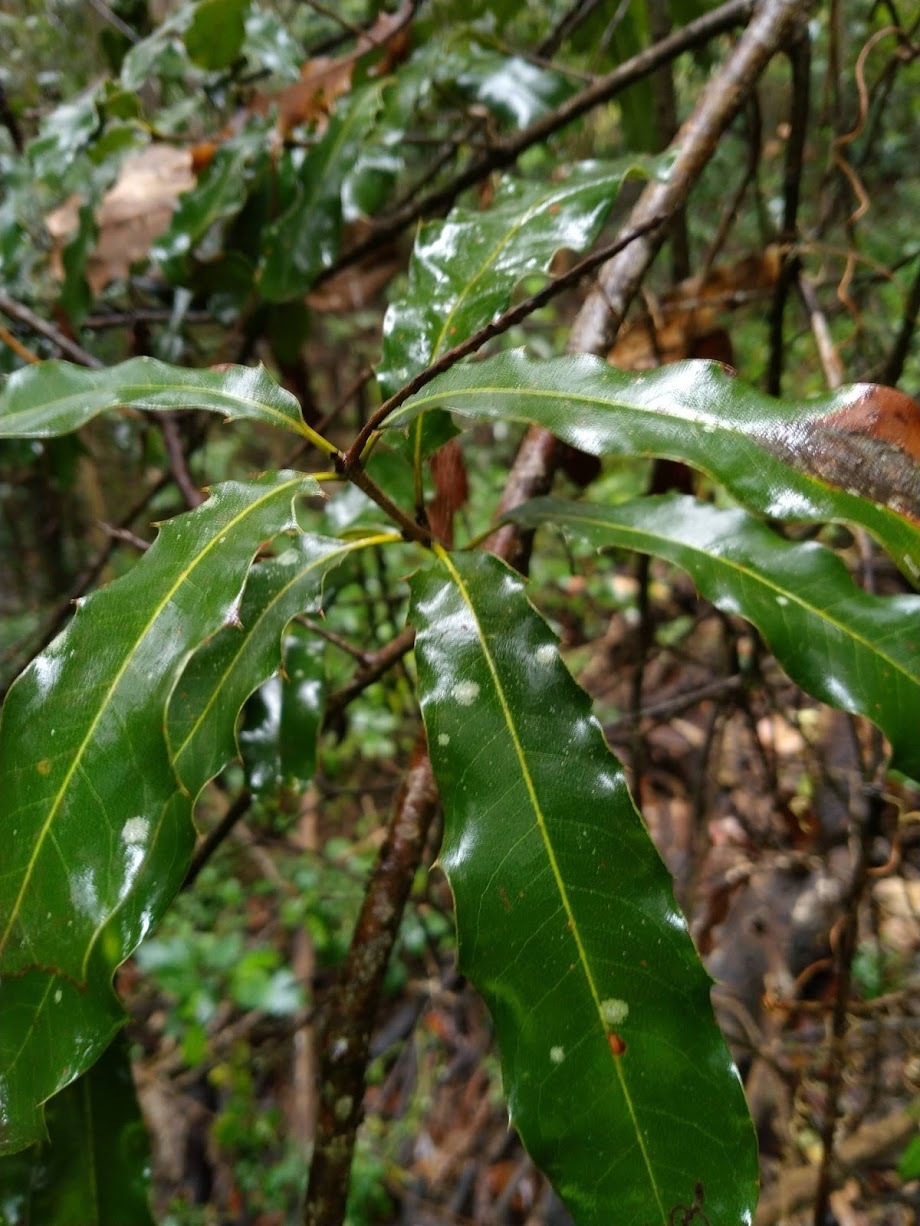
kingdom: Plantae
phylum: Tracheophyta
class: Magnoliopsida
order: Proteales
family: Proteaceae
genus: Macadamia
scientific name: Macadamia integrifolia
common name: Macadamia
